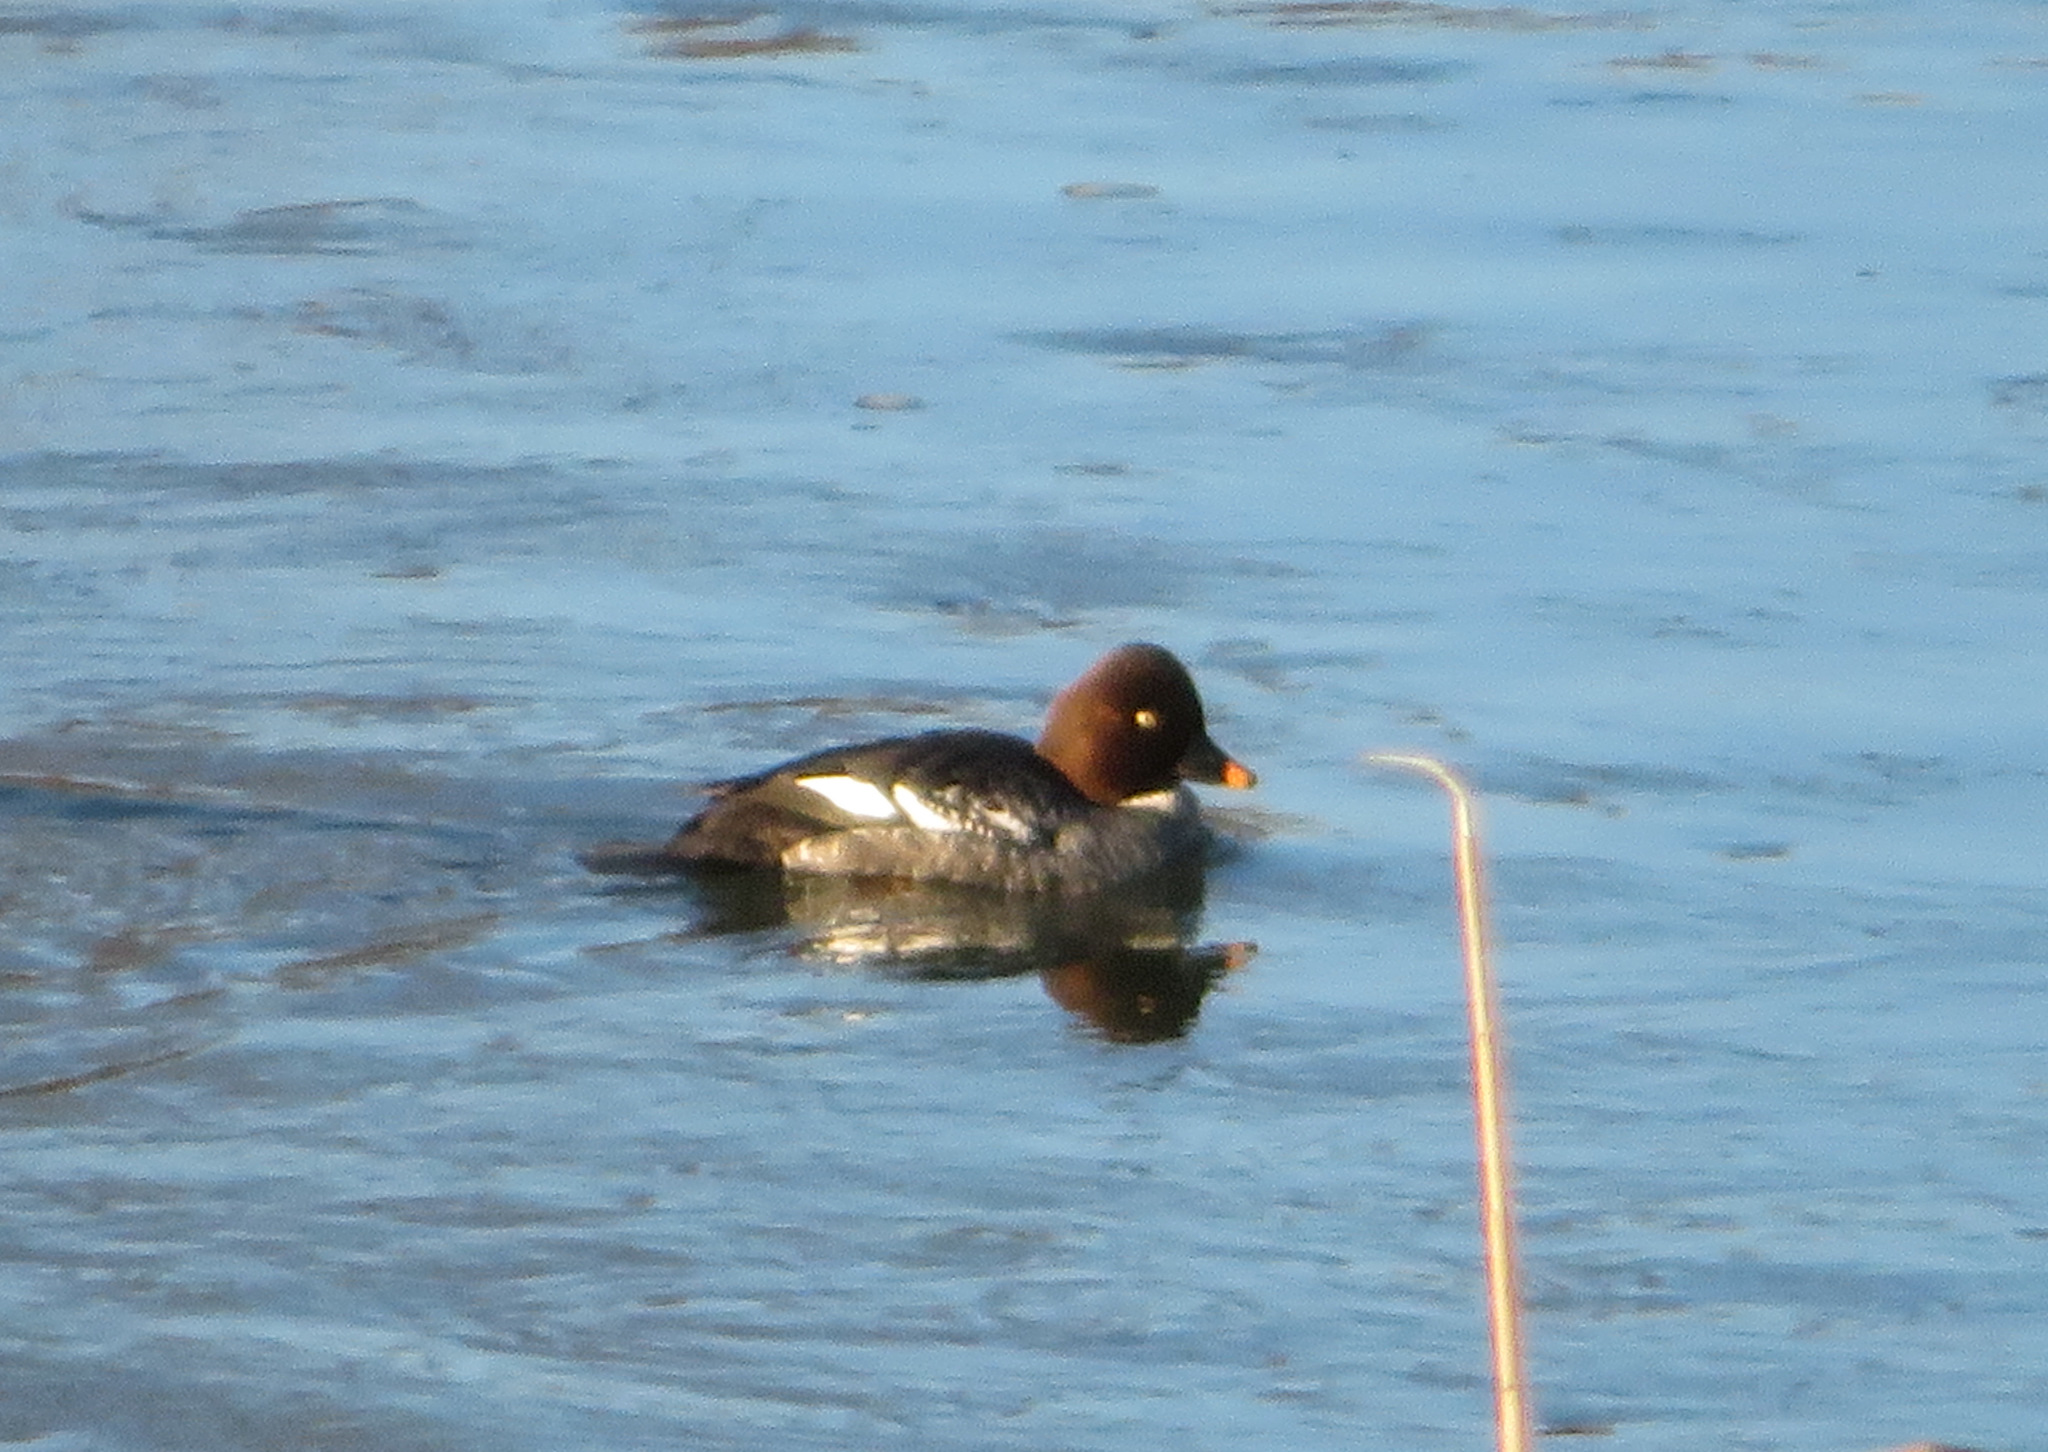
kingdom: Animalia
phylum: Chordata
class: Aves
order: Anseriformes
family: Anatidae
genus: Bucephala
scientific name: Bucephala clangula
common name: Common goldeneye
